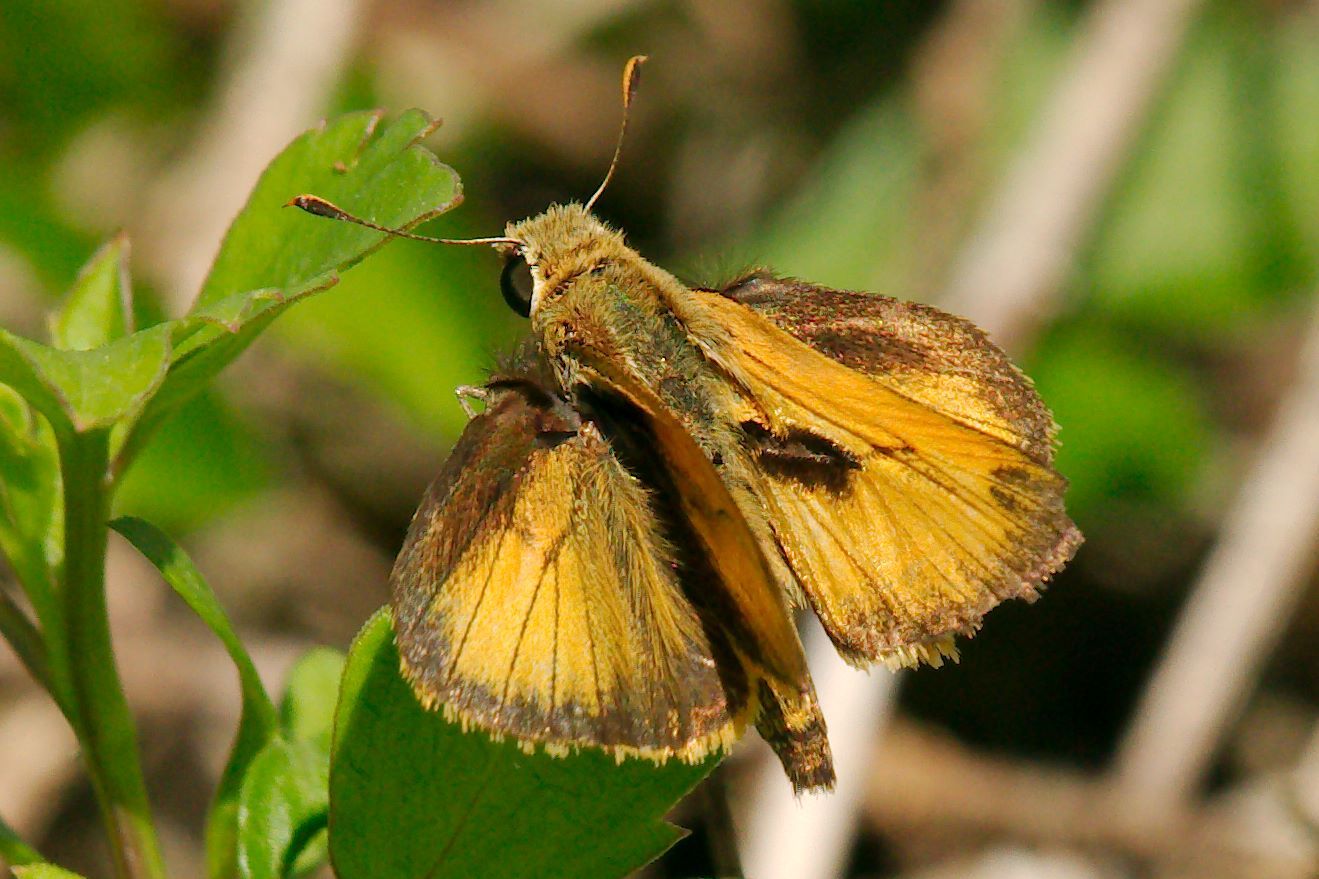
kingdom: Animalia
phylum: Arthropoda
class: Insecta
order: Lepidoptera
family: Hesperiidae
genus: Polites
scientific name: Polites vibex
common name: Whirlabout
